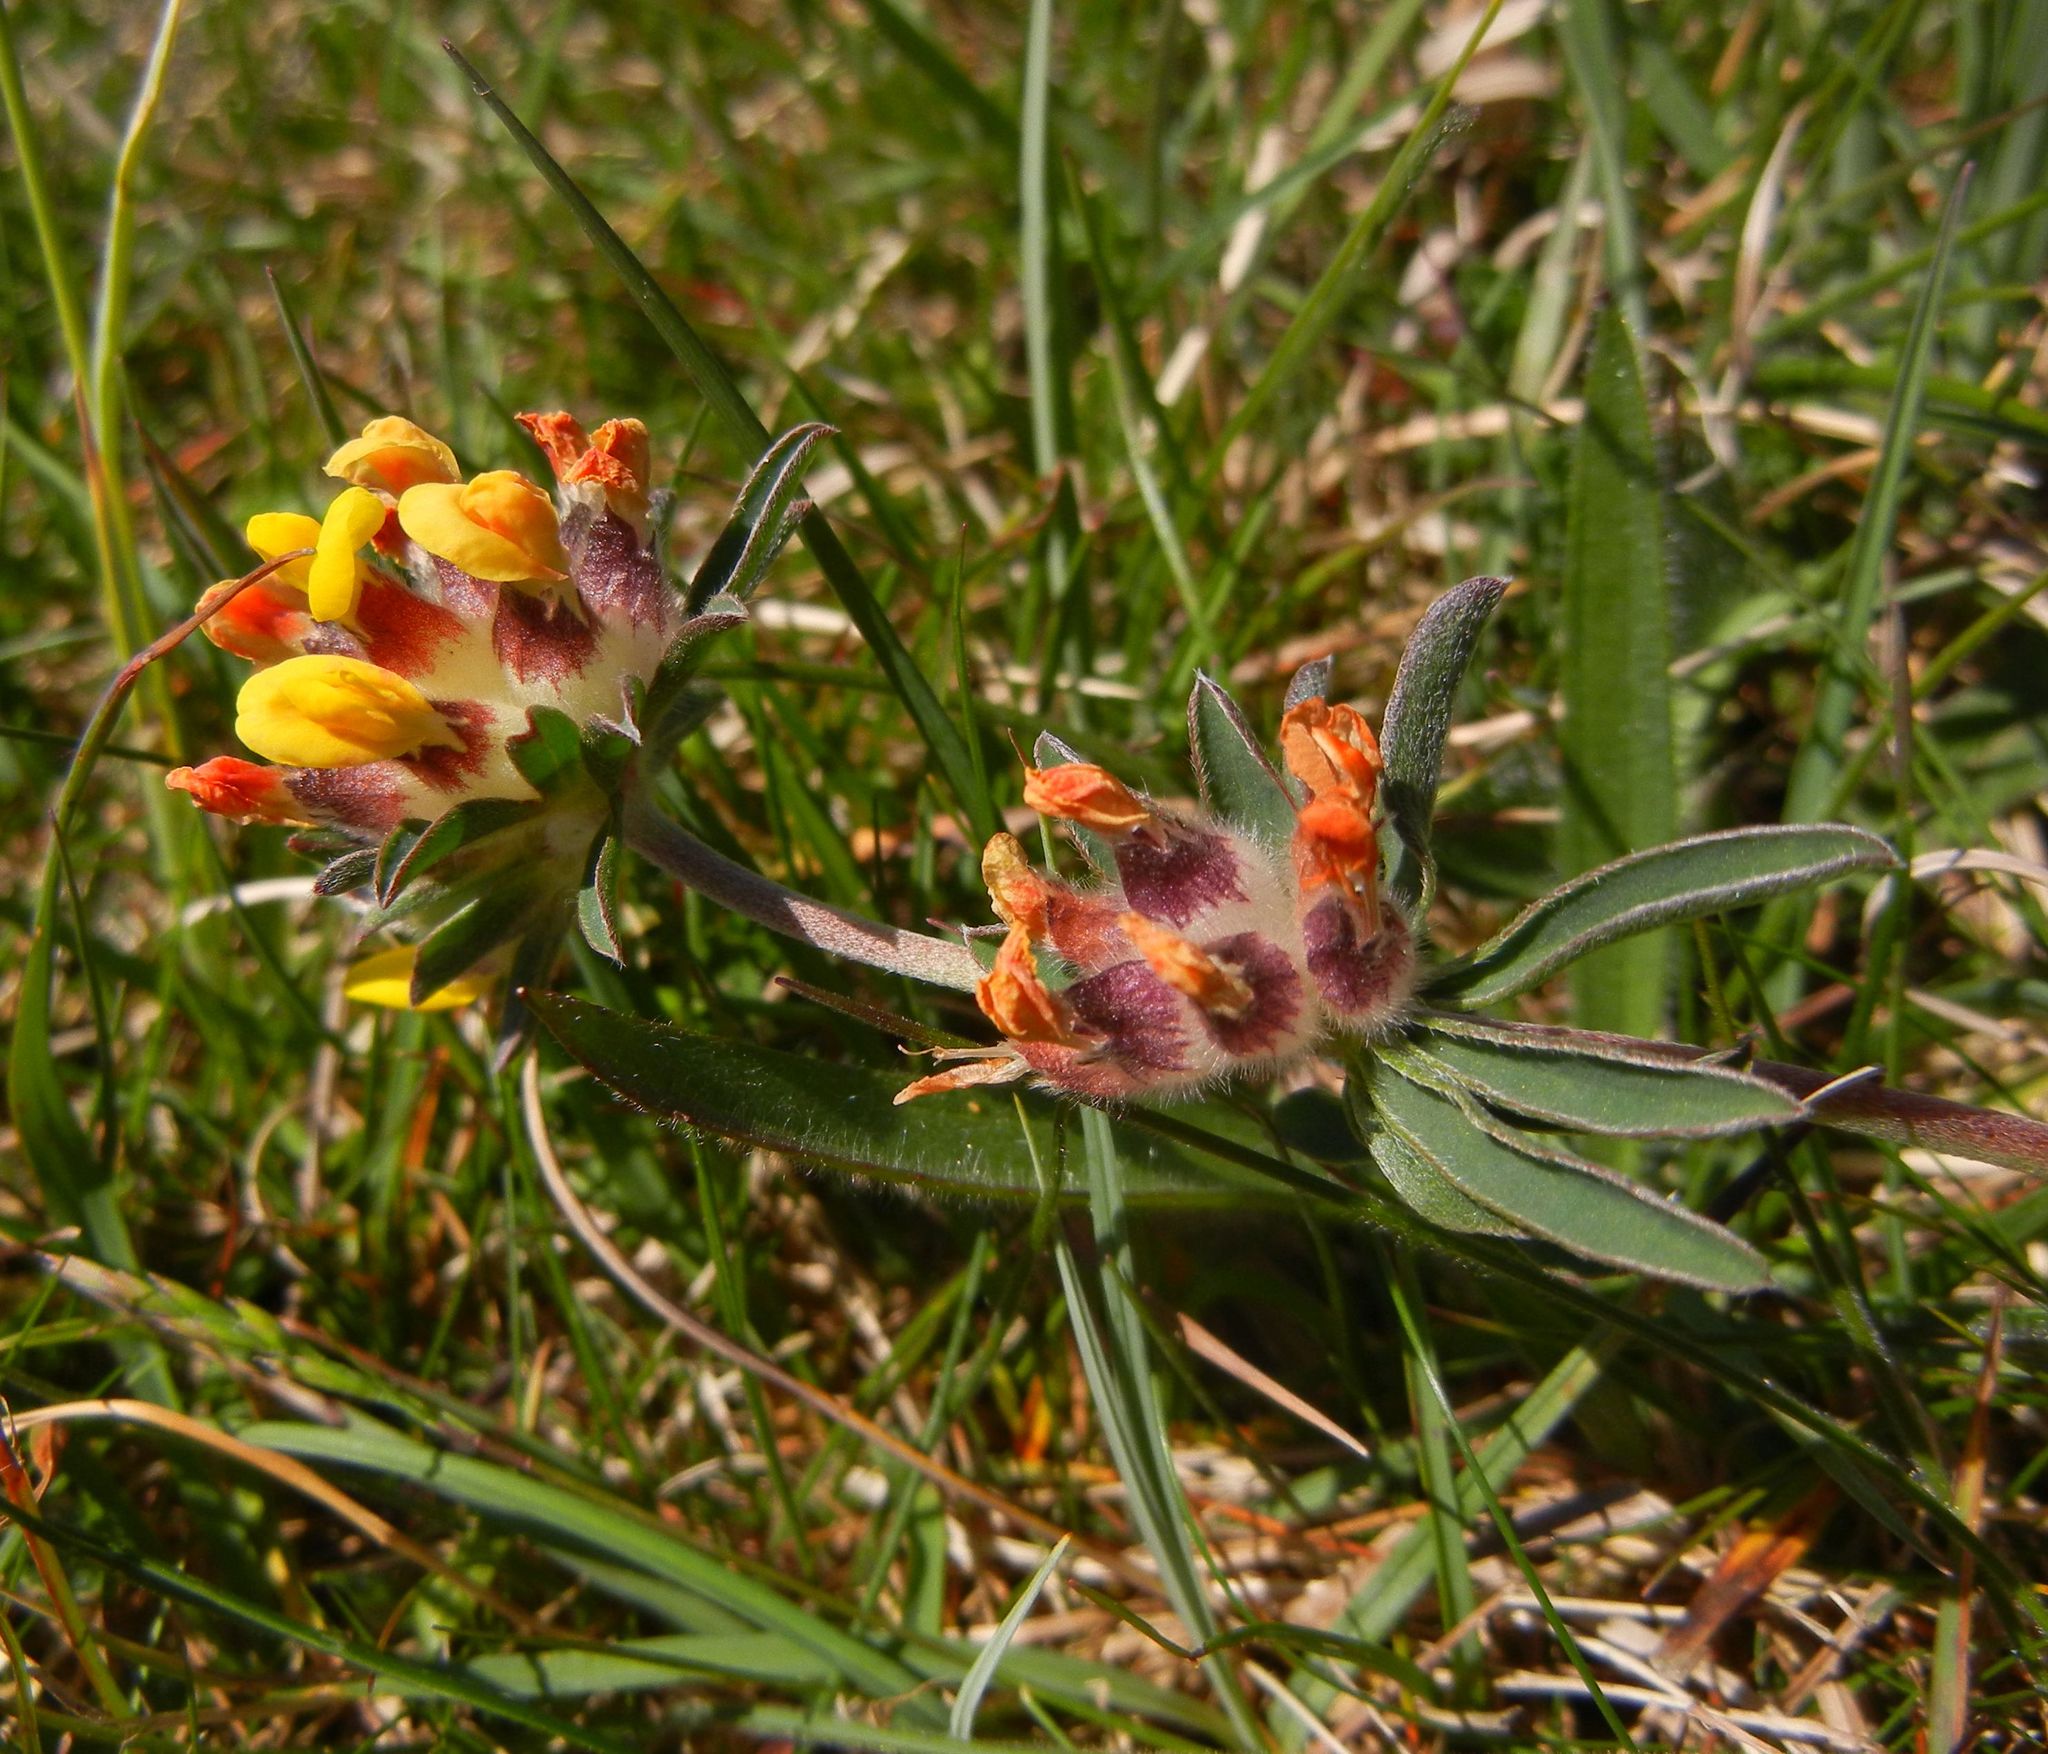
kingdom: Plantae
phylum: Tracheophyta
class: Magnoliopsida
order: Fabales
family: Fabaceae
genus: Anthyllis
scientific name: Anthyllis vulneraria
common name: Kidney vetch
